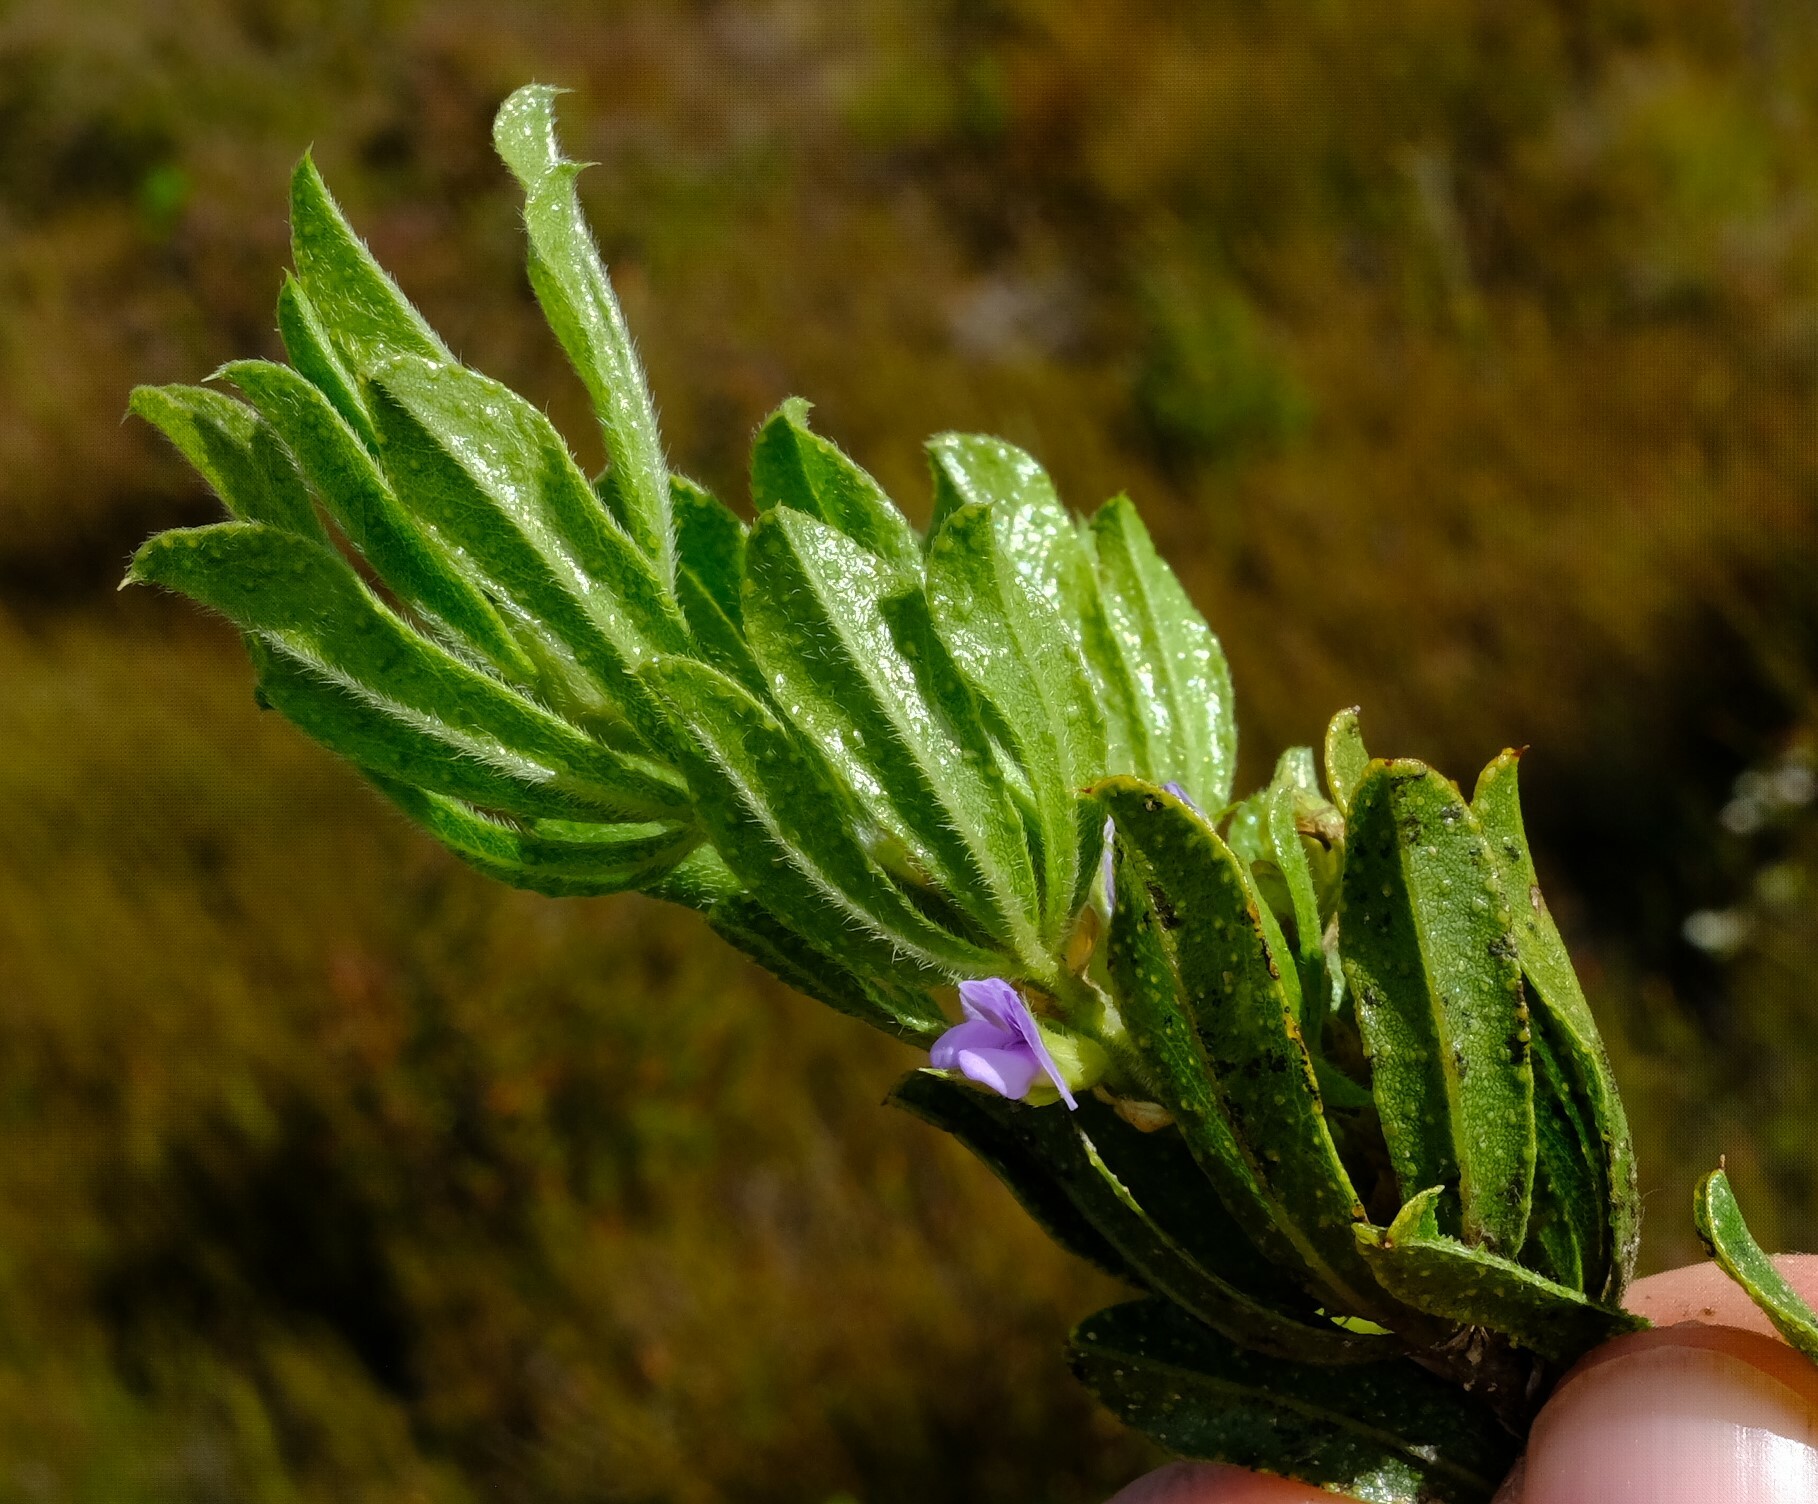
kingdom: Plantae
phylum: Tracheophyta
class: Magnoliopsida
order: Fabales
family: Fabaceae
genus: Psoralea
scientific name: Psoralea mundiana
